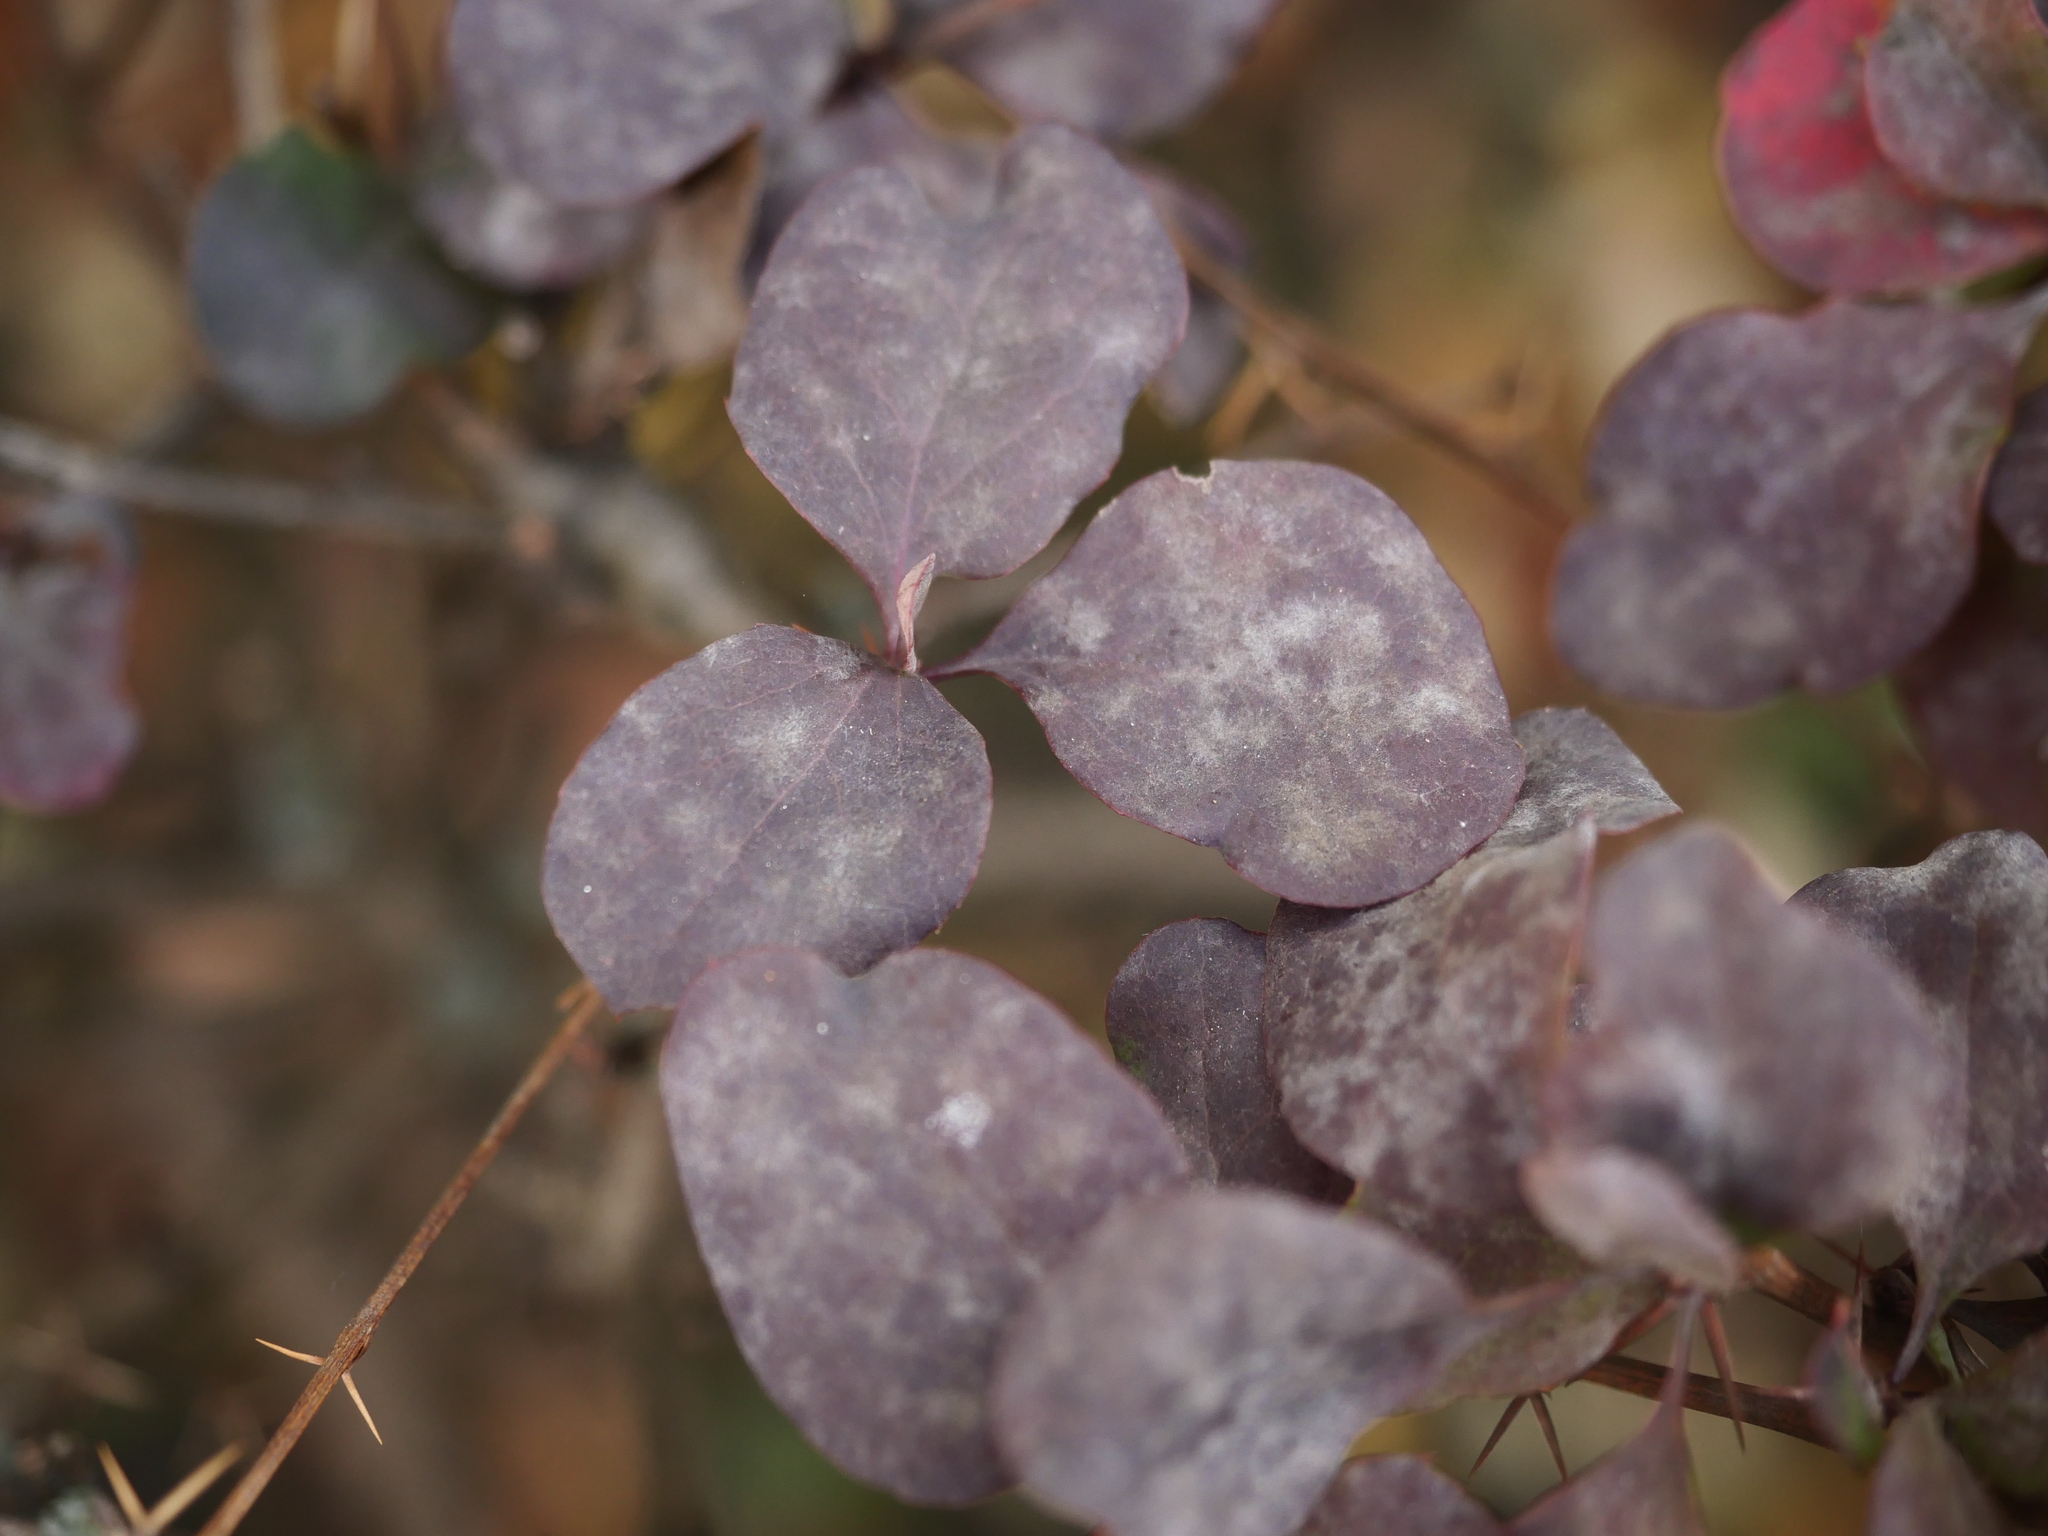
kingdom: Fungi
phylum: Ascomycota
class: Leotiomycetes
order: Helotiales
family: Erysiphaceae
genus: Erysiphe
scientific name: Erysiphe berberidis
